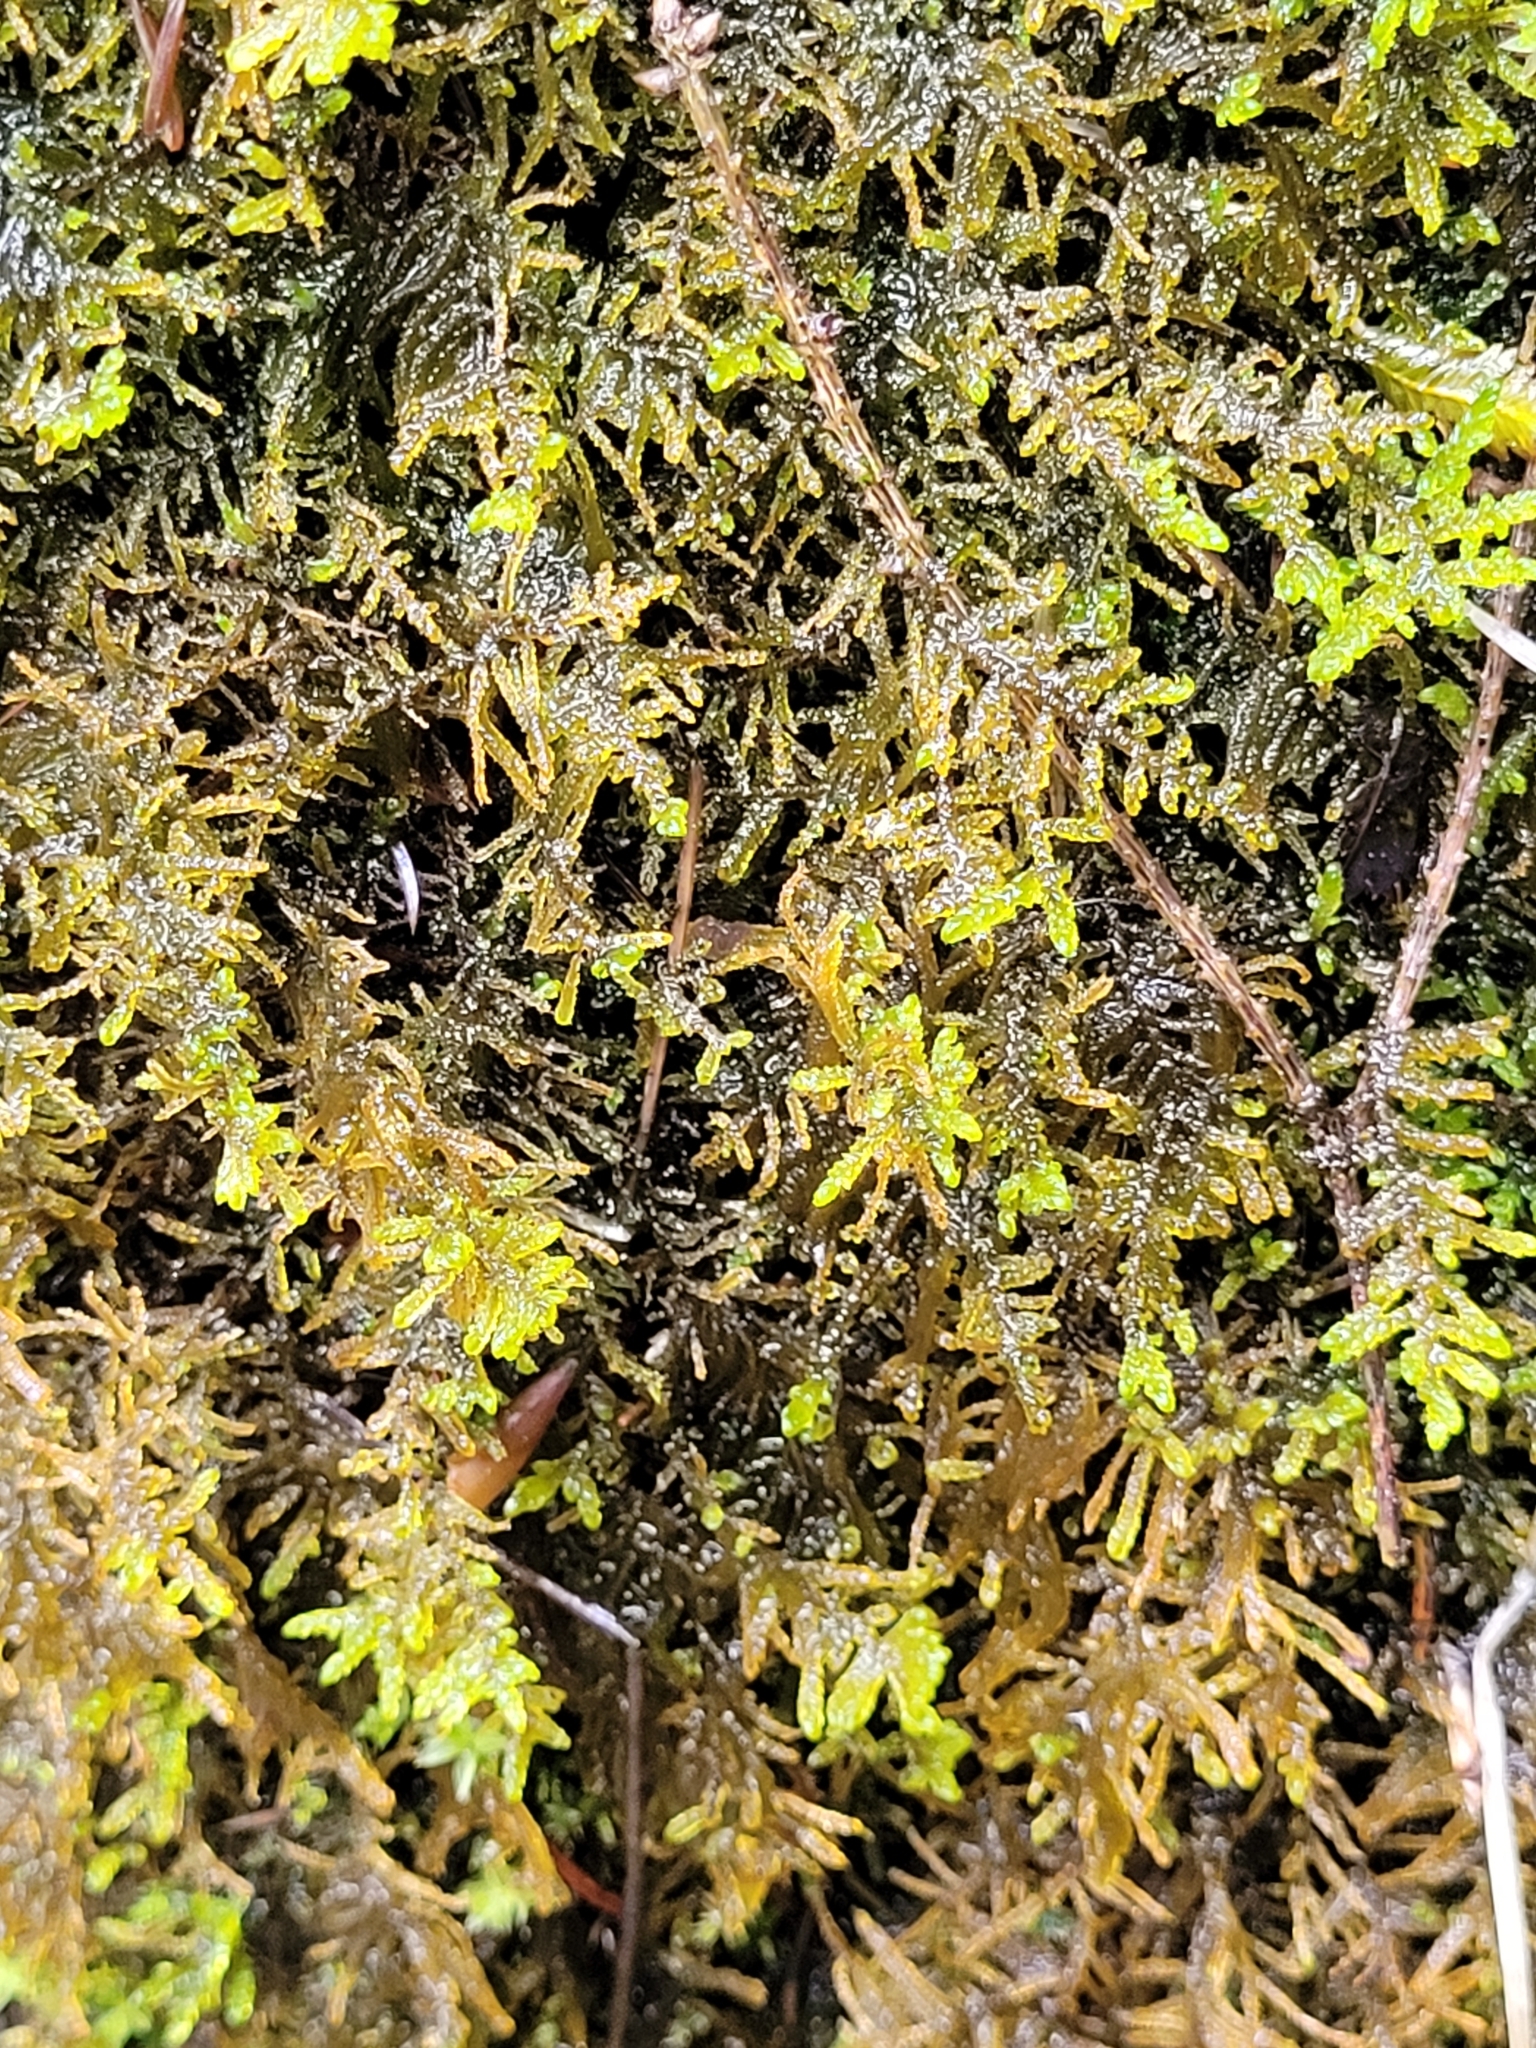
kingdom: Plantae
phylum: Bryophyta
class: Bryopsida
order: Hypnales
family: Amblystegiaceae
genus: Palustriella
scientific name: Palustriella commutata
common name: Curled hook-moss
